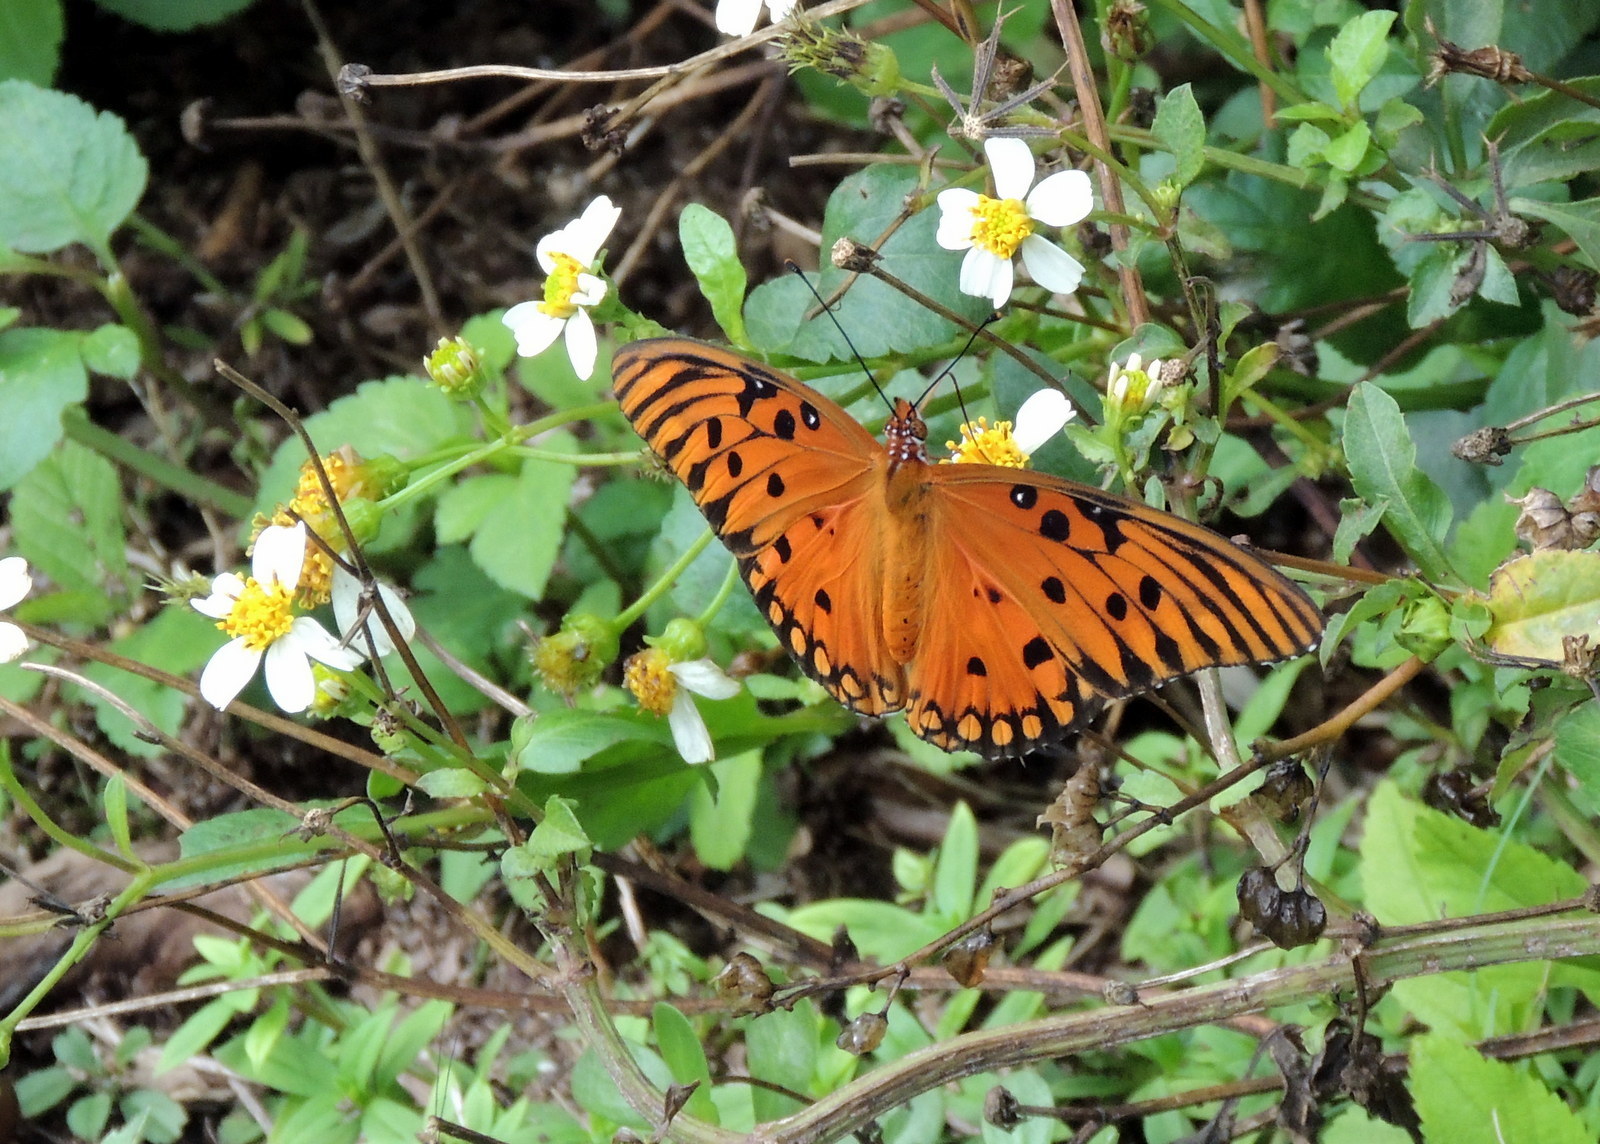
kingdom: Animalia
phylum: Arthropoda
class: Insecta
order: Lepidoptera
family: Nymphalidae
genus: Dione
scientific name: Dione vanillae
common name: Gulf fritillary
